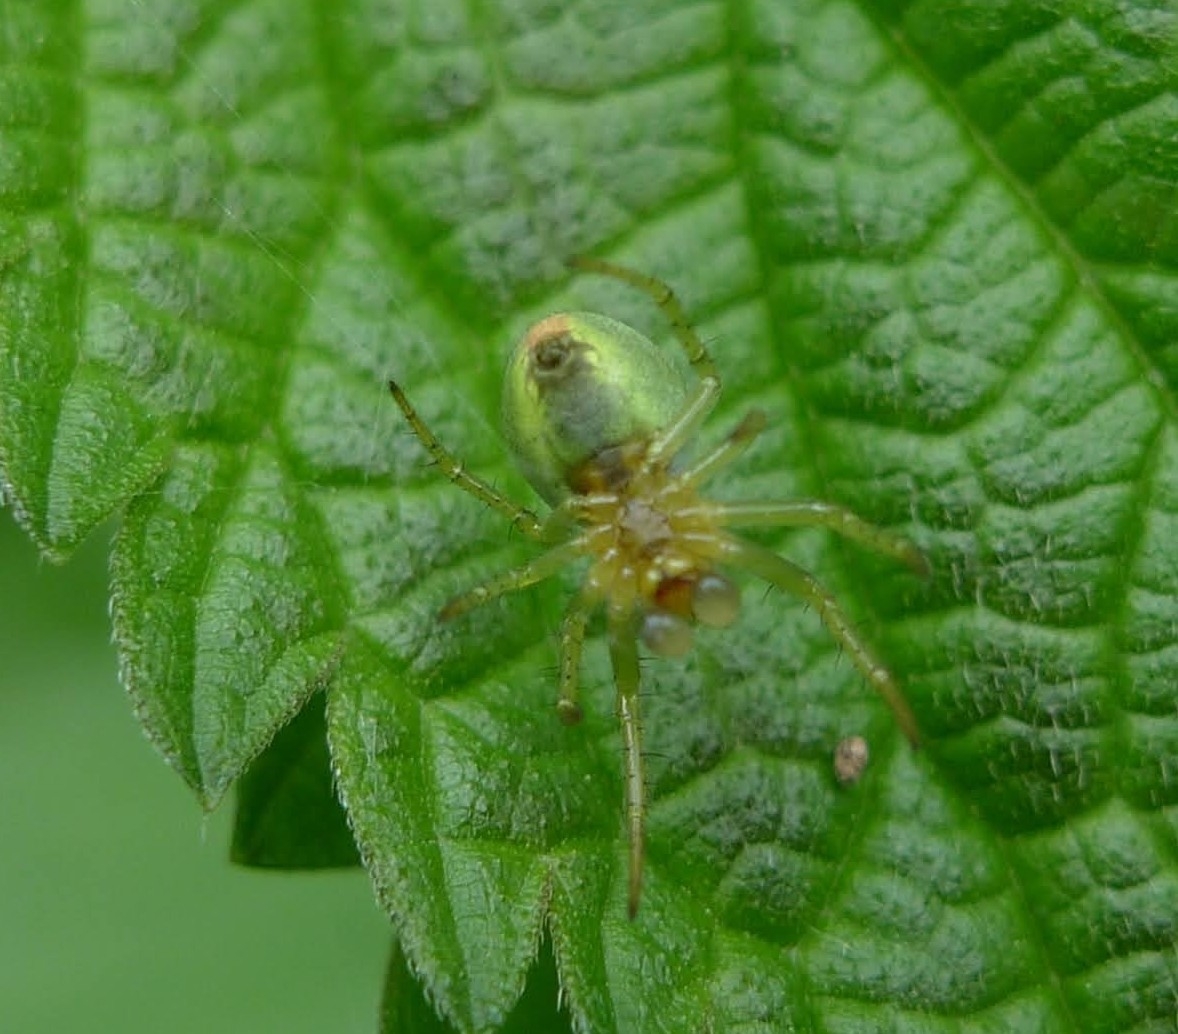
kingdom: Animalia
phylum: Arthropoda
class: Arachnida
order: Araneae
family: Araneidae
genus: Araniella
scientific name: Araniella
